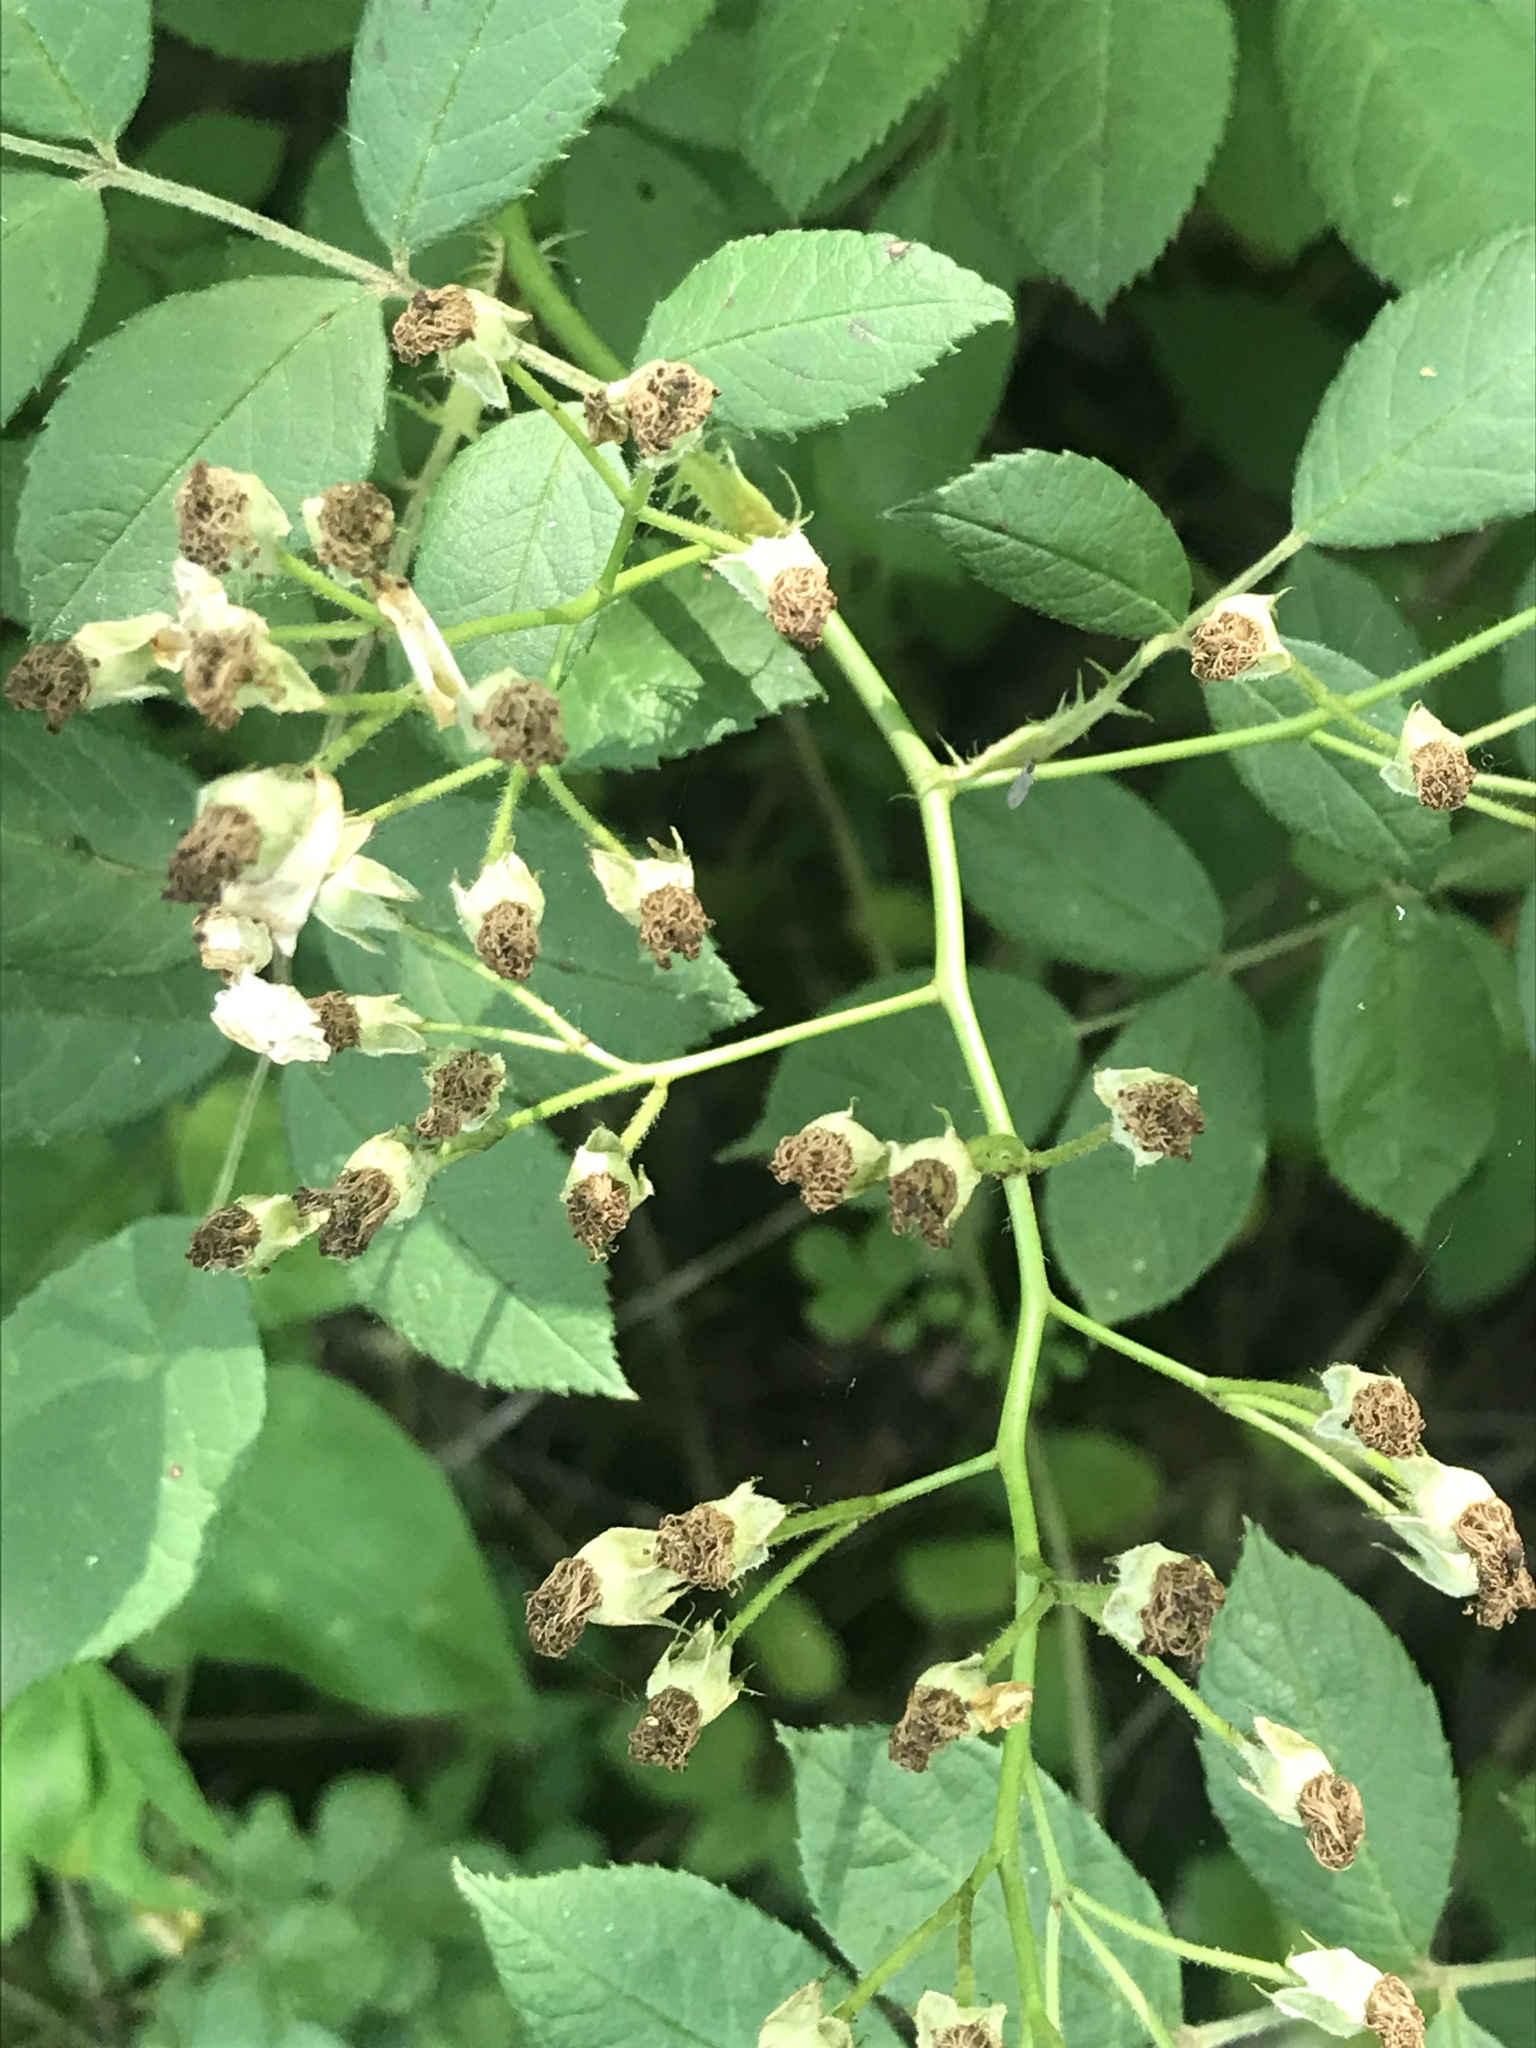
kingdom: Plantae
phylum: Tracheophyta
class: Magnoliopsida
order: Rosales
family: Rosaceae
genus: Rosa
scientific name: Rosa multiflora
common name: Multiflora rose
